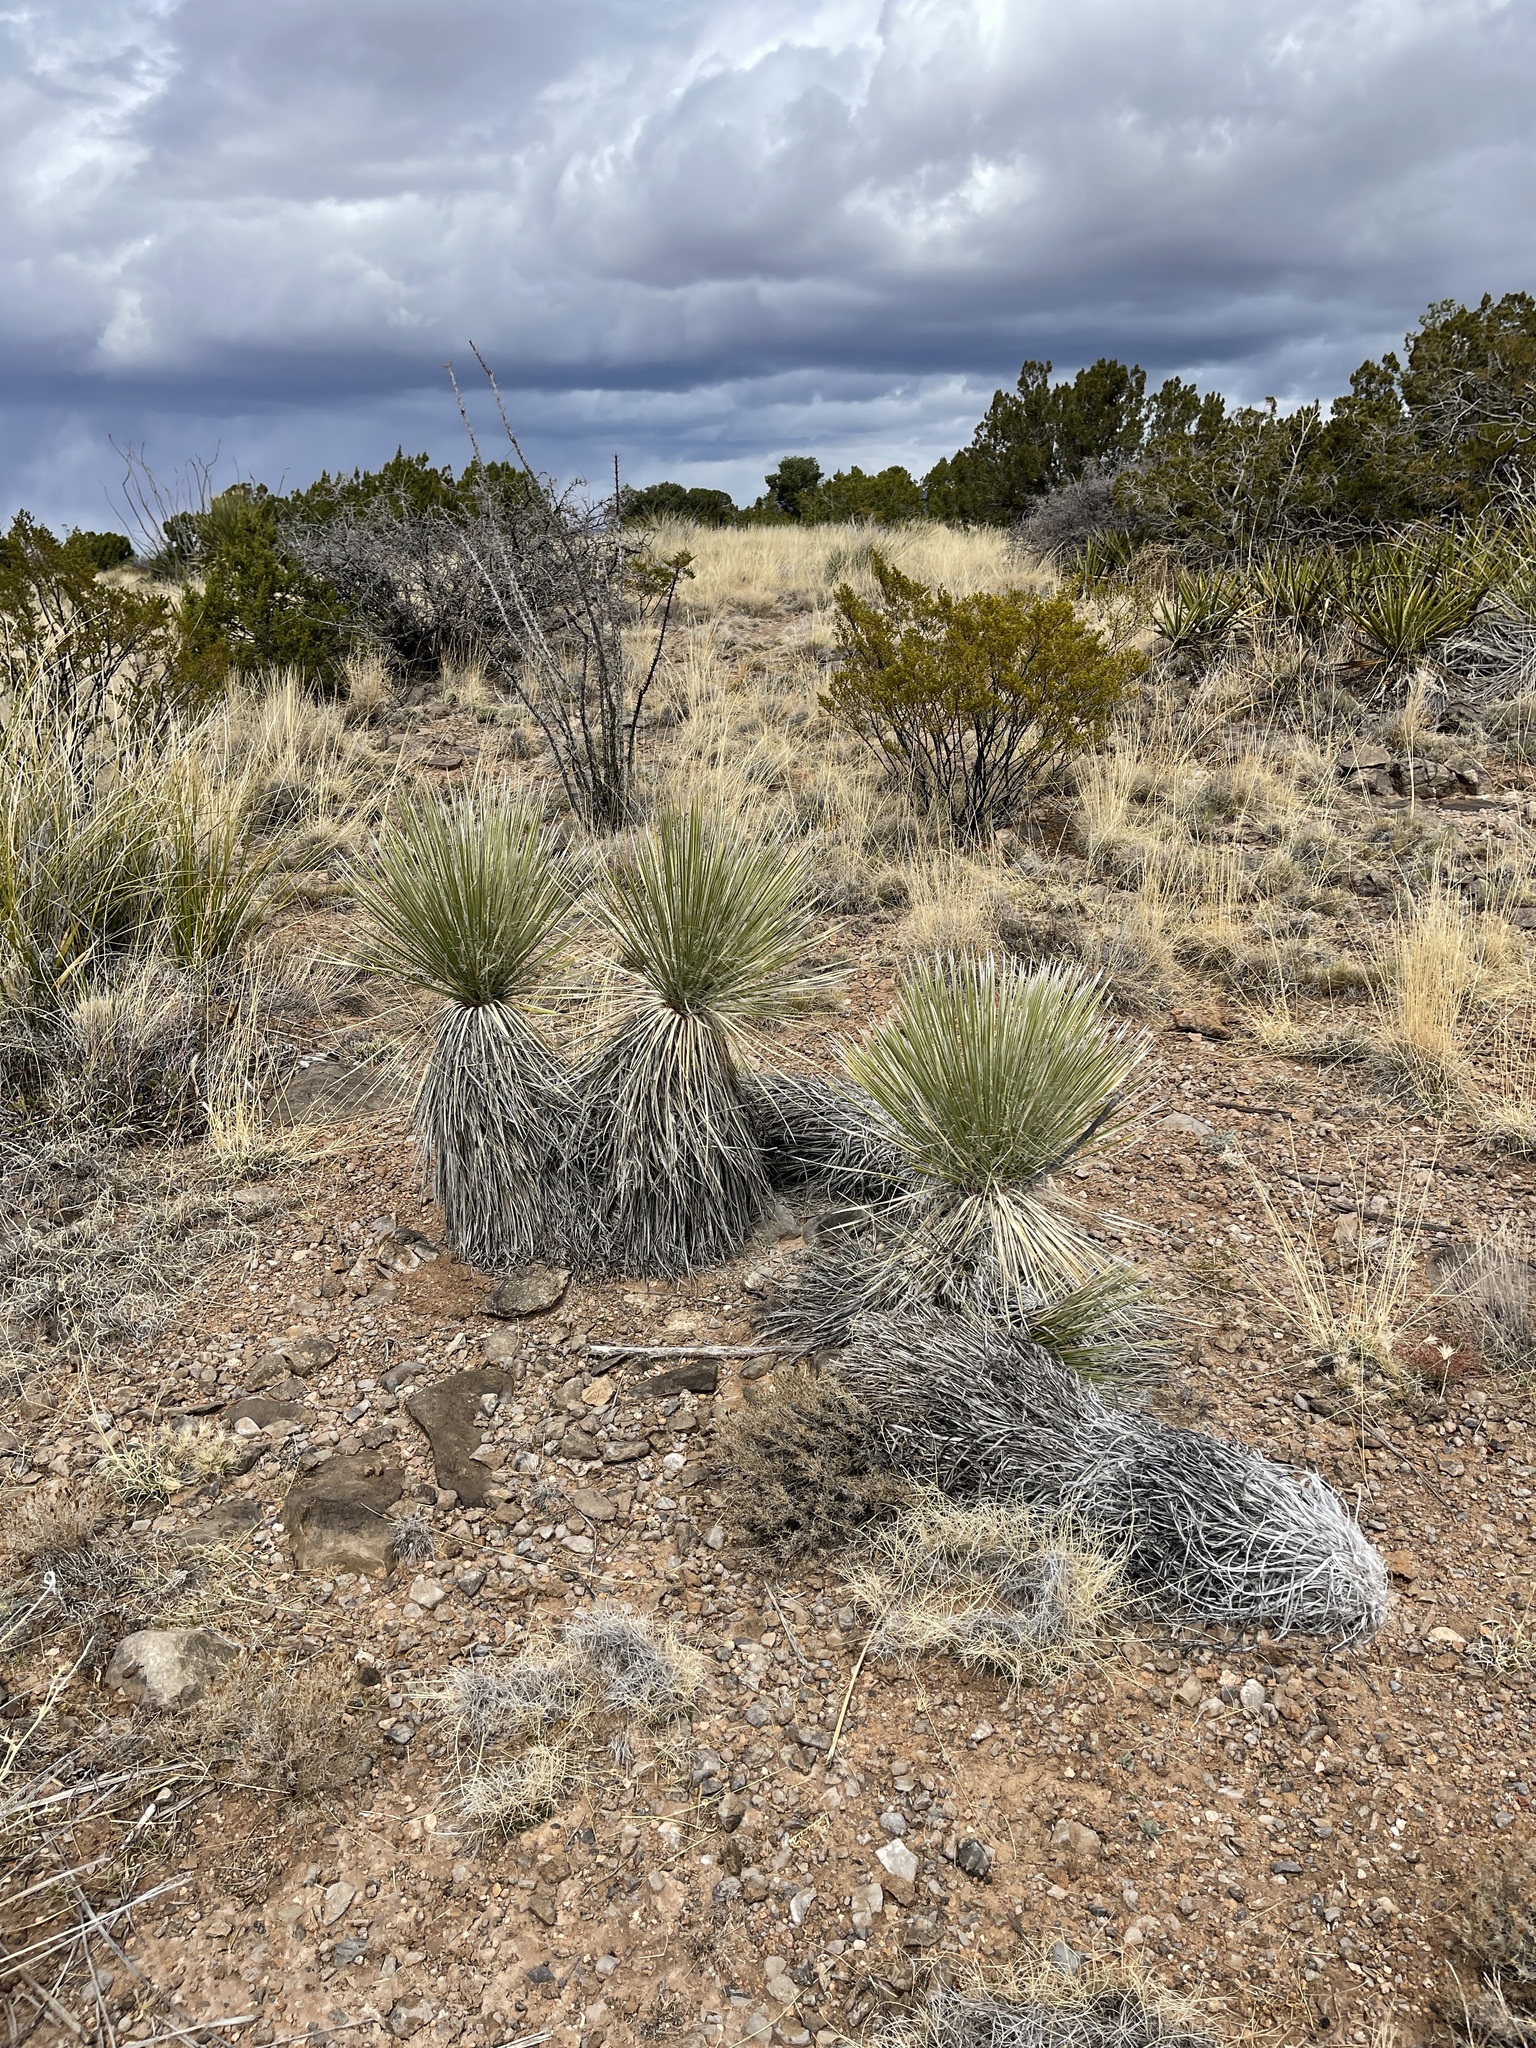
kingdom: Plantae
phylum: Tracheophyta
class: Liliopsida
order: Asparagales
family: Asparagaceae
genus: Yucca
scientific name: Yucca elata
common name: Palmella
